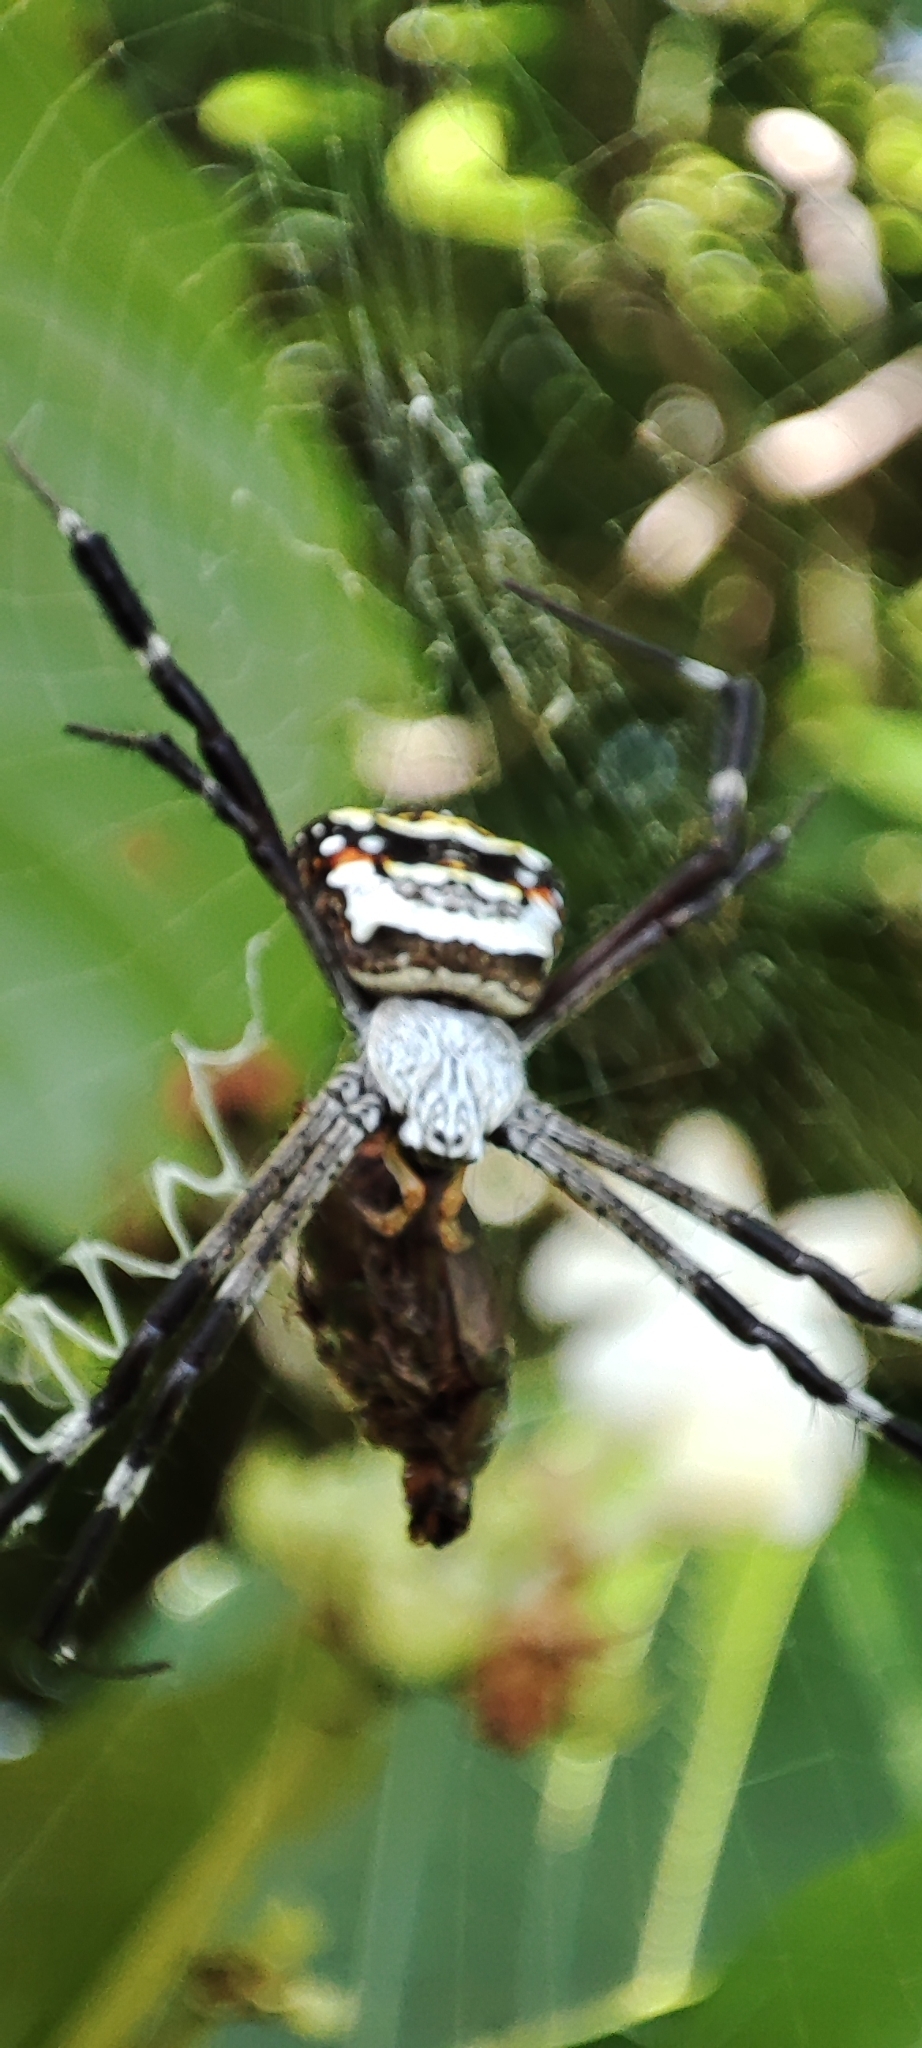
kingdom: Animalia
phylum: Arthropoda
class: Arachnida
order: Araneae
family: Araneidae
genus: Argiope
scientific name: Argiope anasuja
